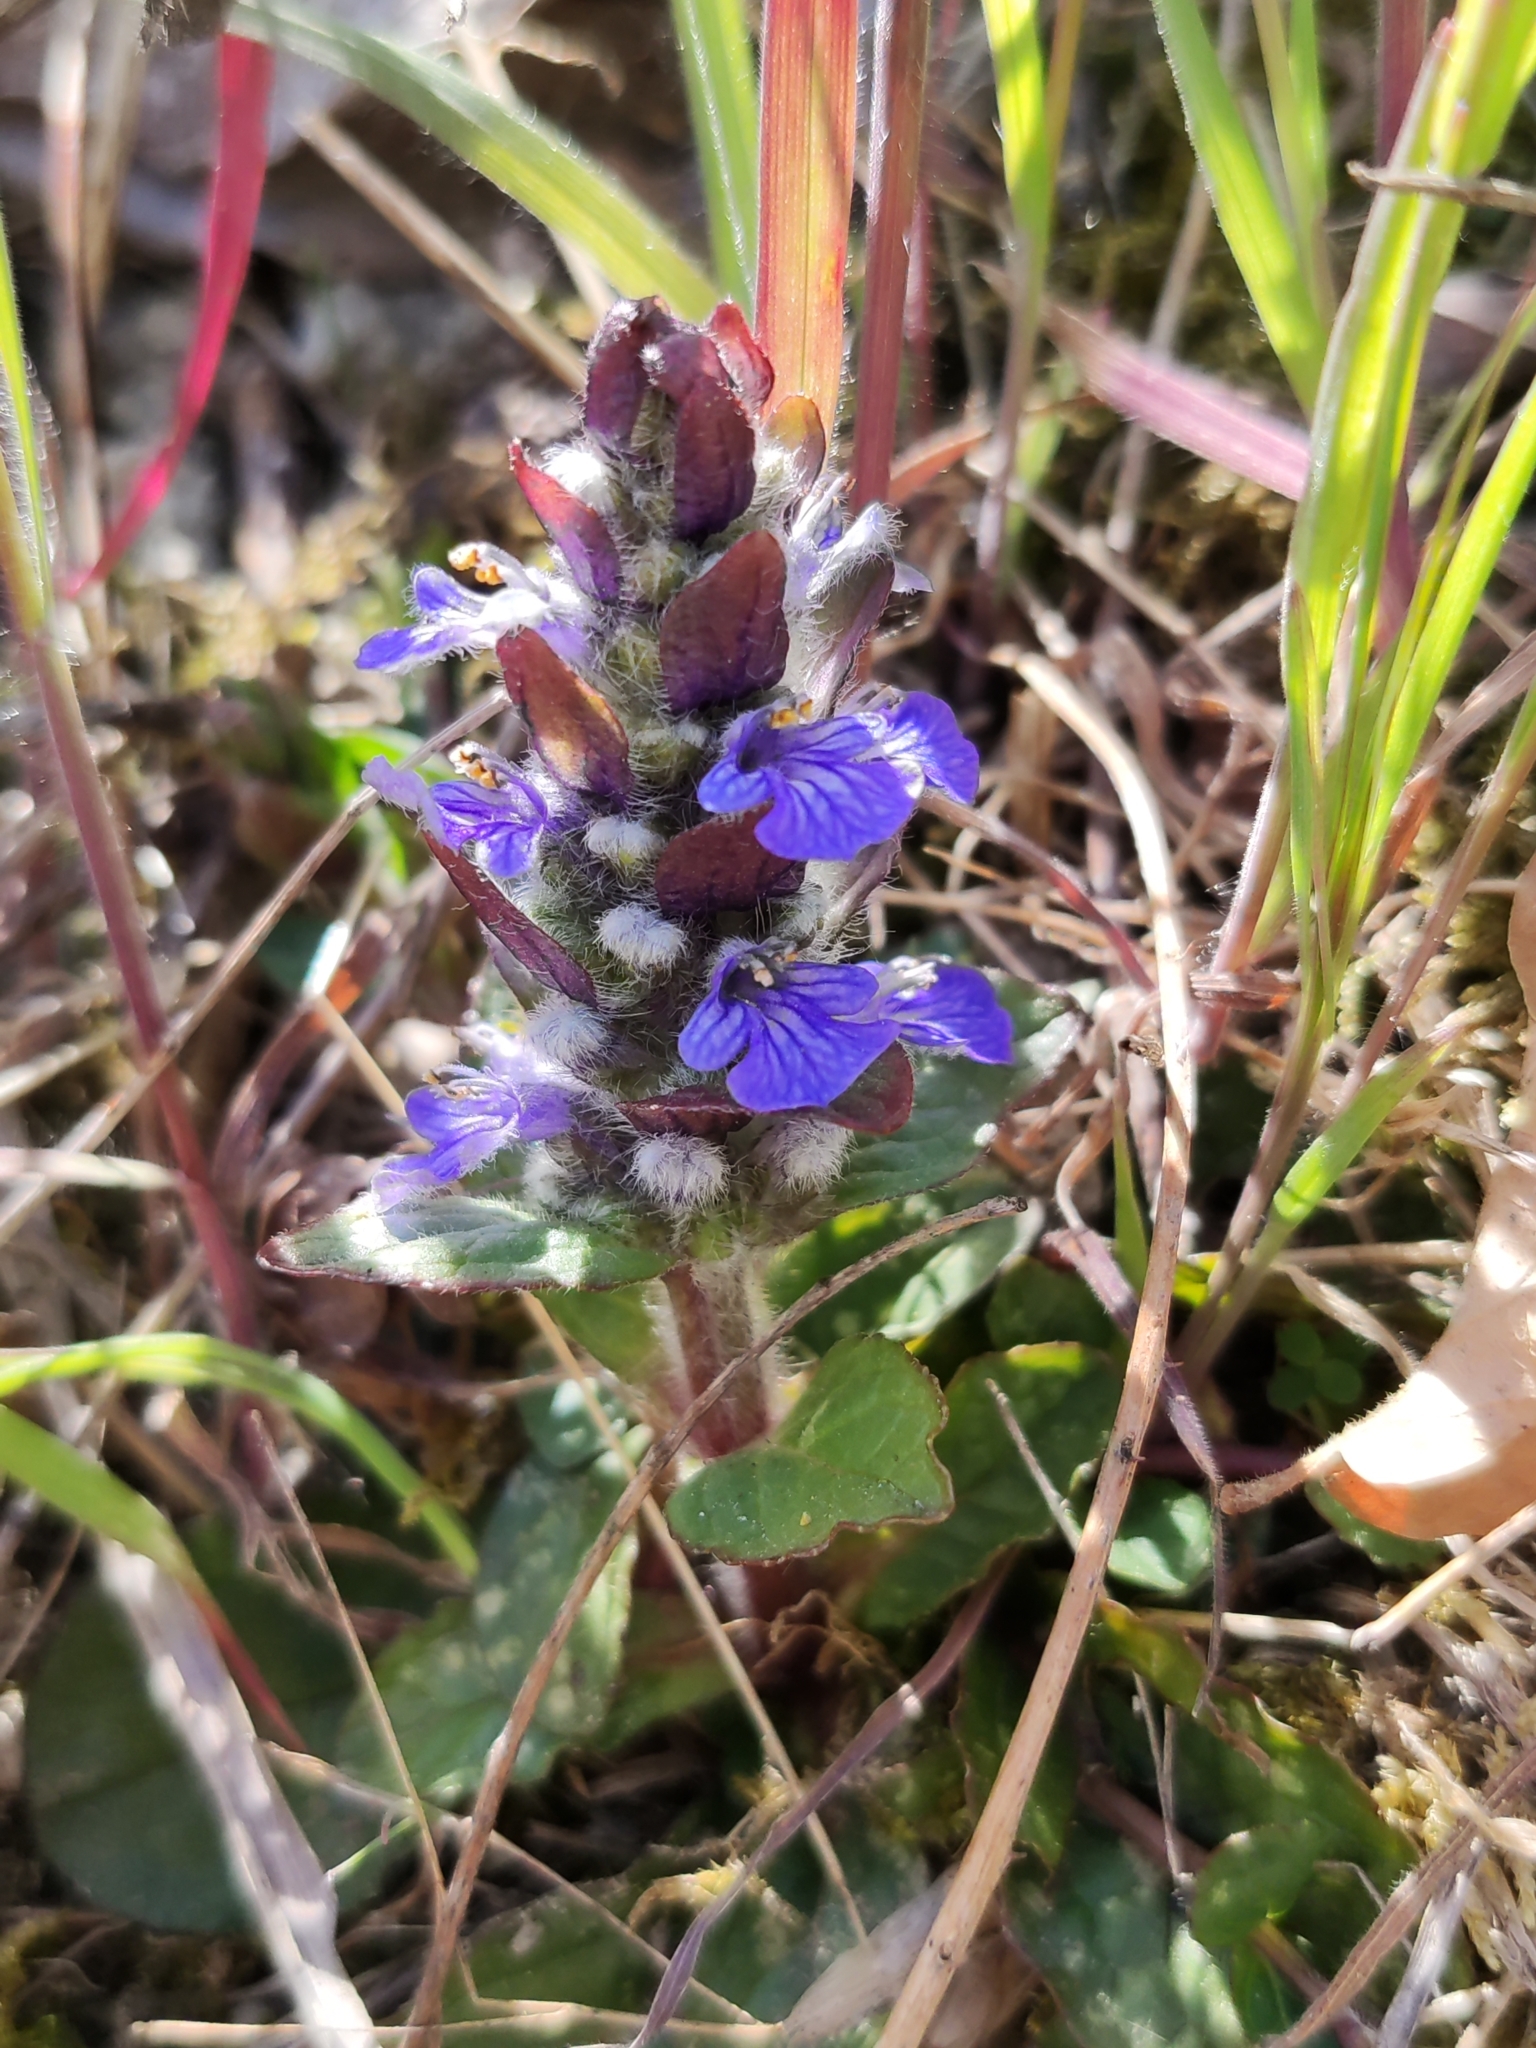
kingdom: Plantae
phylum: Tracheophyta
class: Magnoliopsida
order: Lamiales
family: Lamiaceae
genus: Ajuga
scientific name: Ajuga reptans
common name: Bugle
